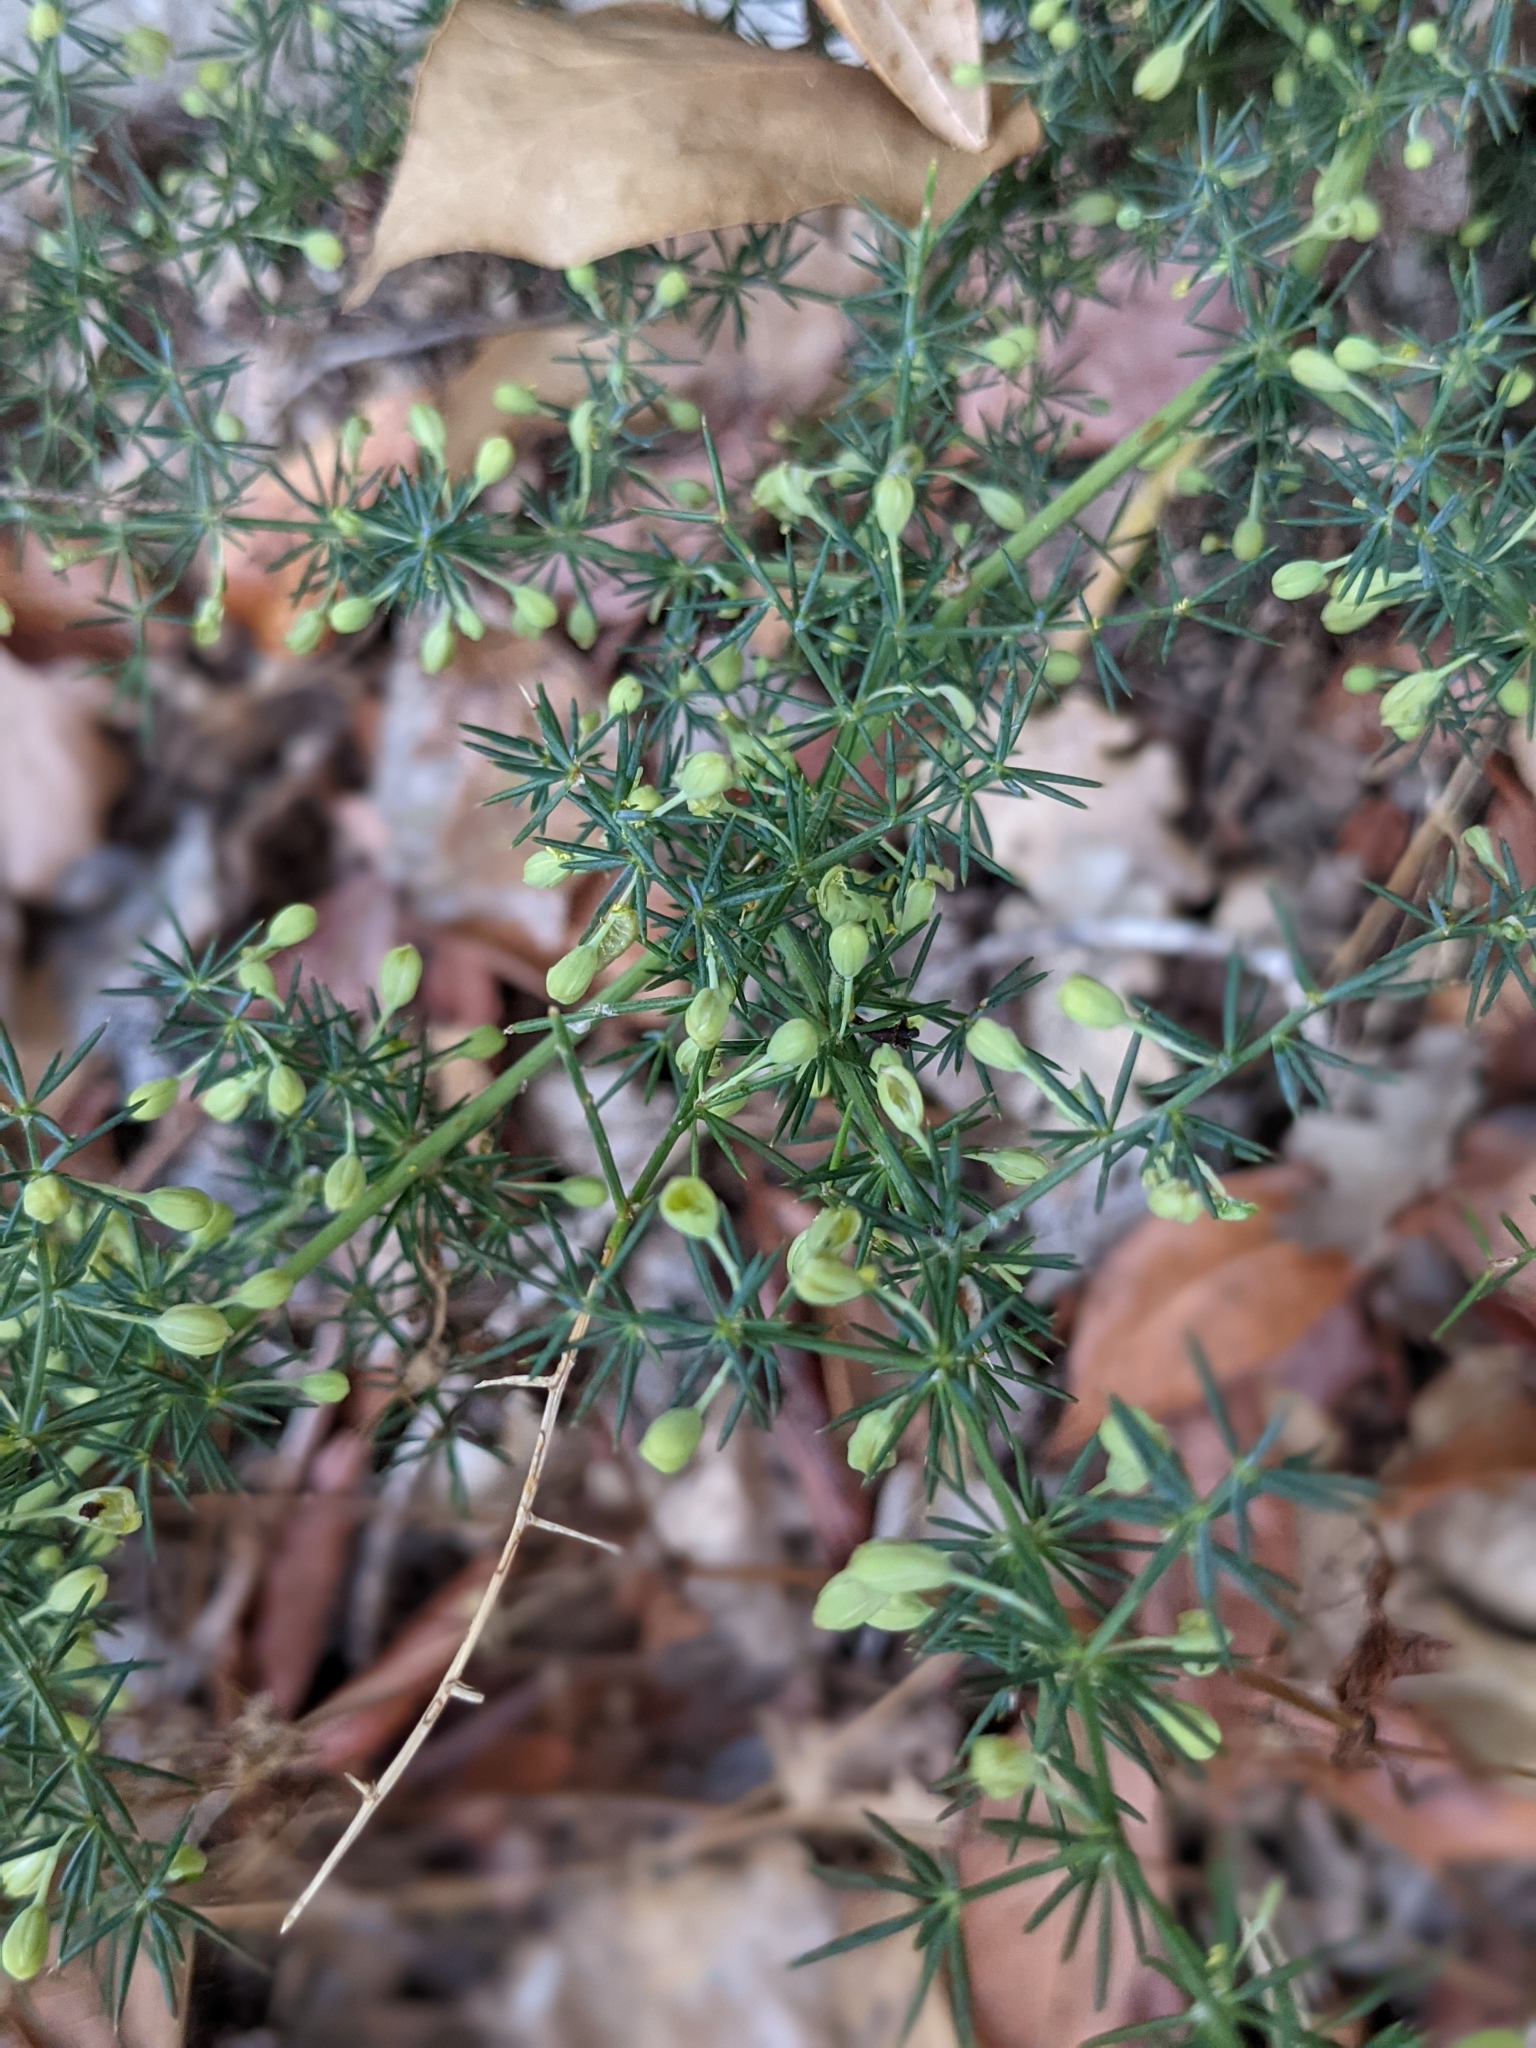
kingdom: Plantae
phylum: Tracheophyta
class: Liliopsida
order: Asparagales
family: Asparagaceae
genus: Asparagus
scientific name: Asparagus acutifolius
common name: Wild asparagus
